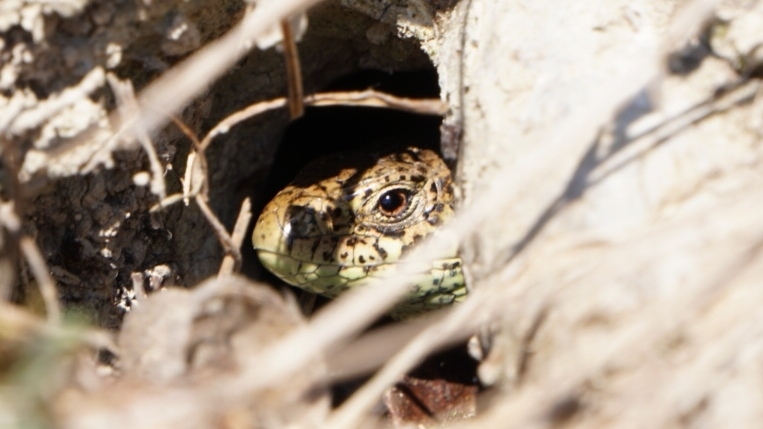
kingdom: Animalia
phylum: Chordata
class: Squamata
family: Lacertidae
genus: Lacerta
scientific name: Lacerta agilis
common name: Sand lizard
